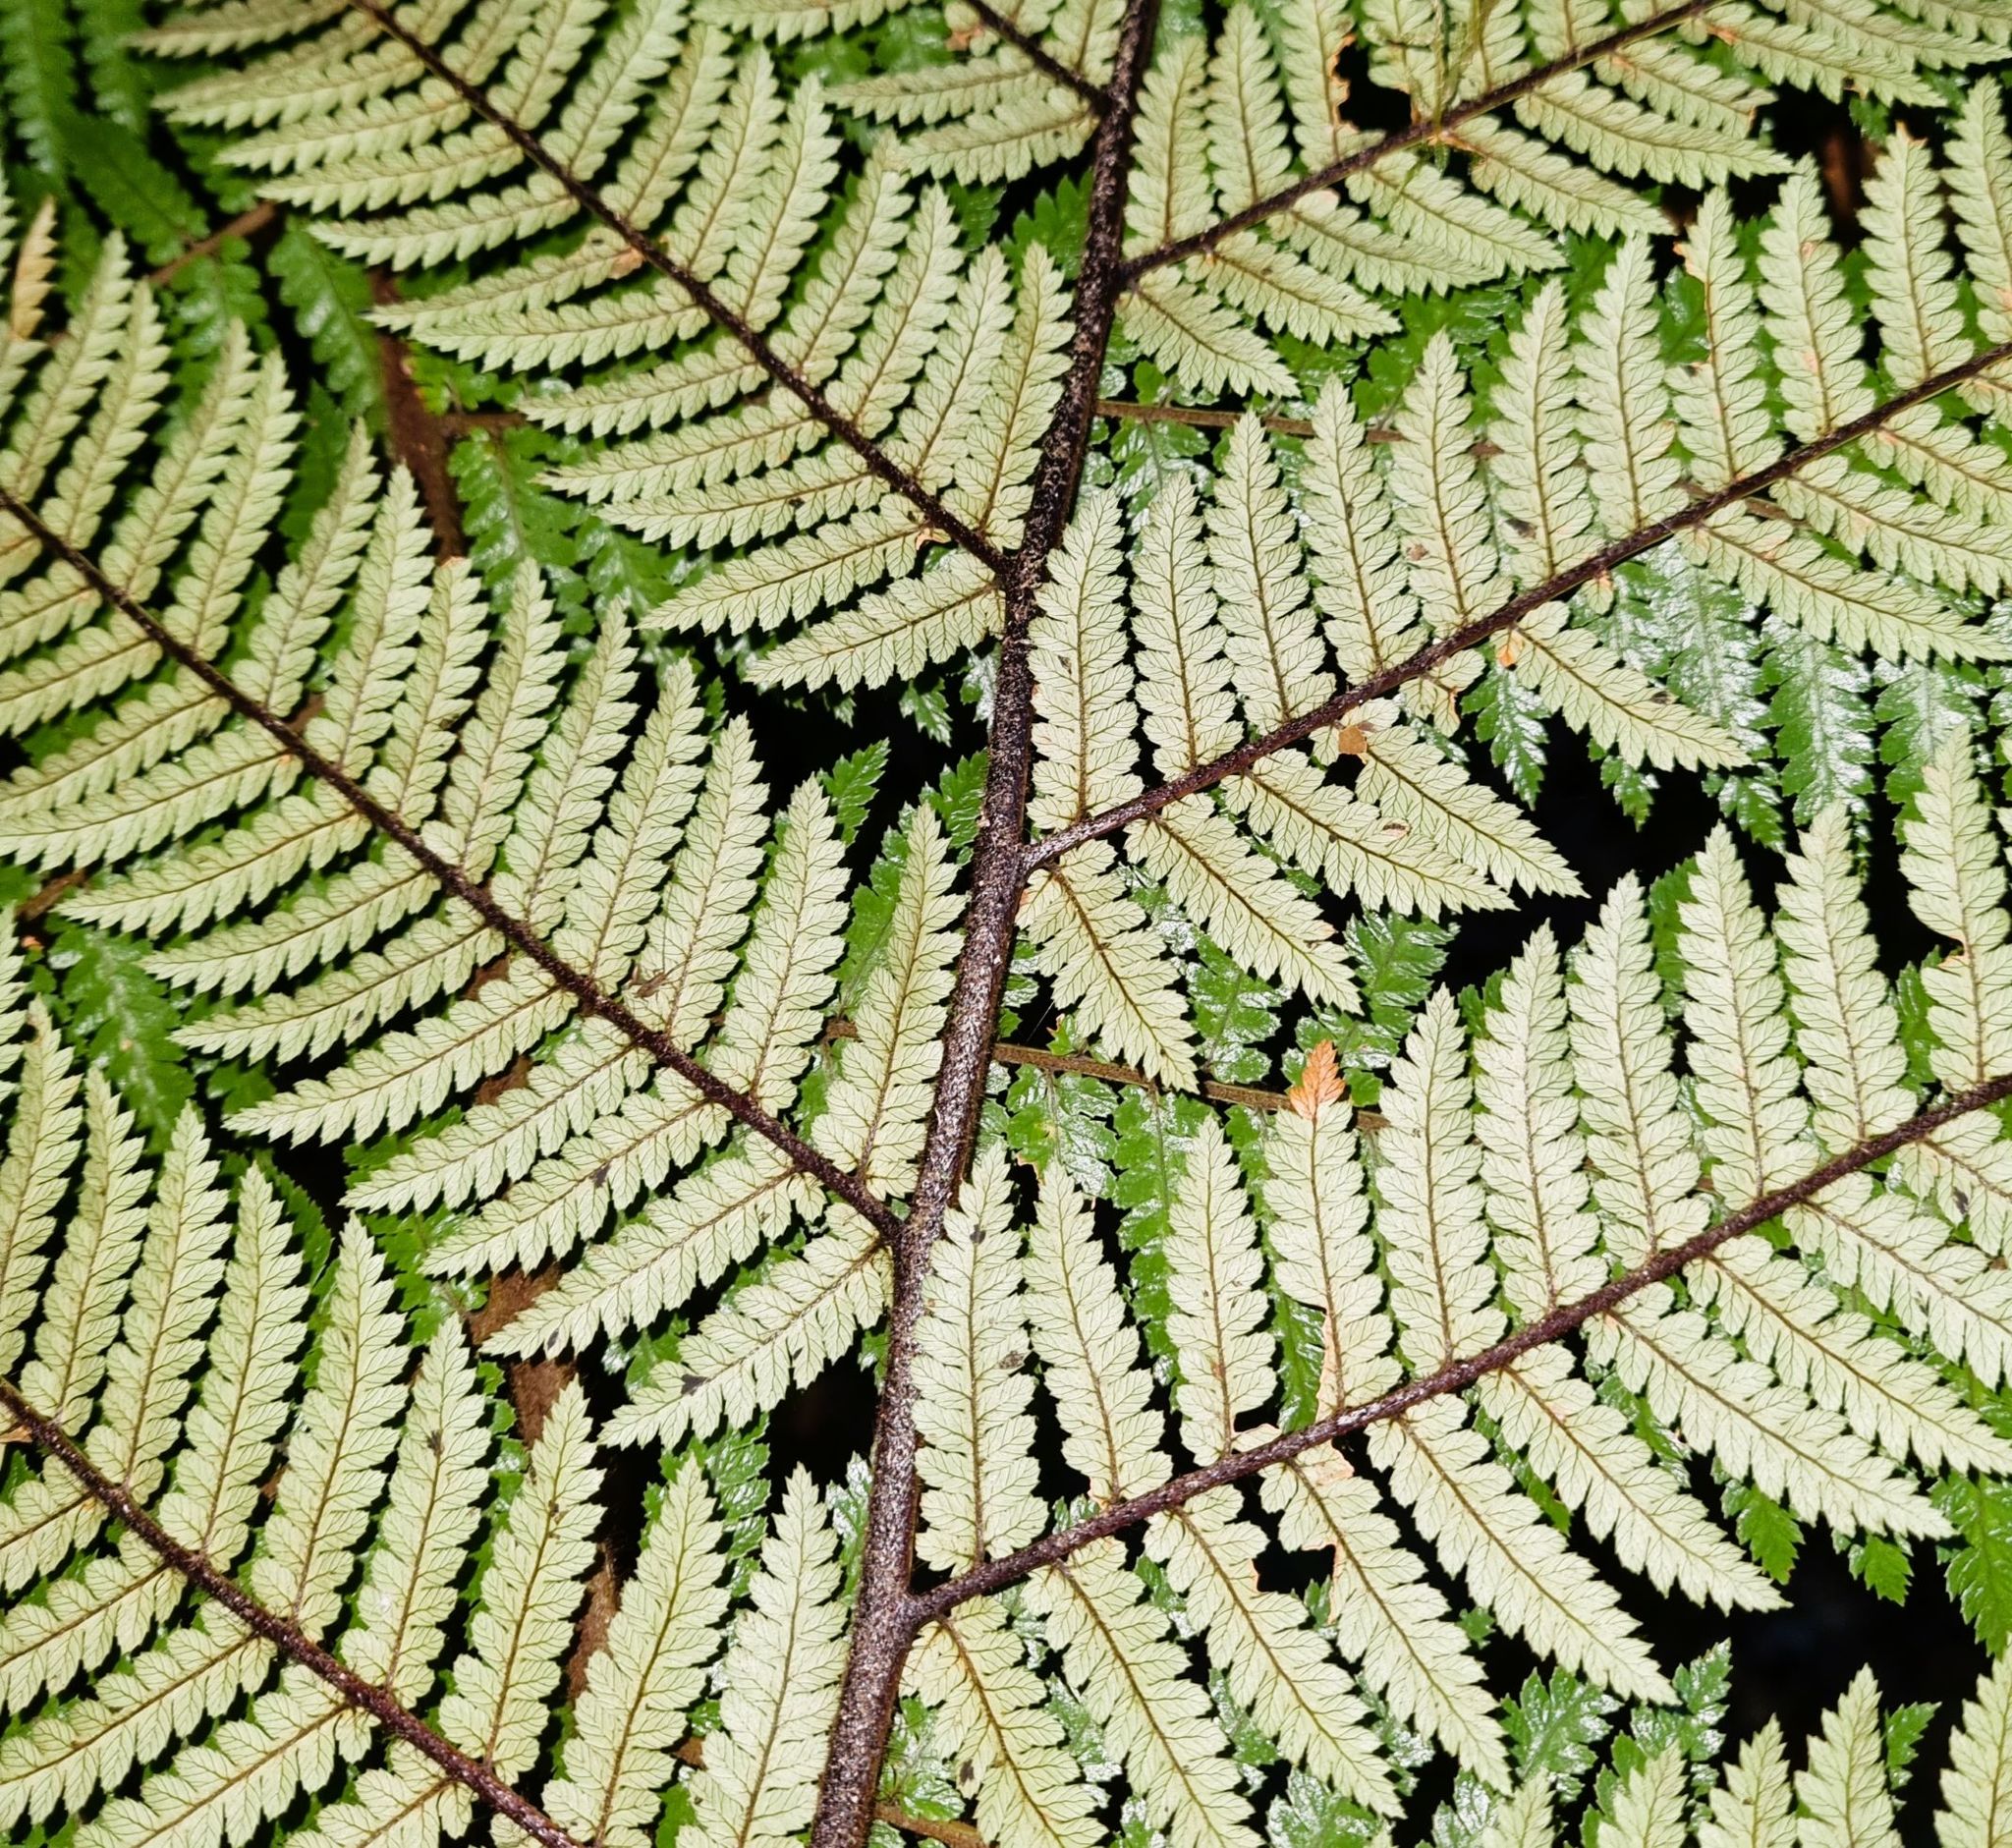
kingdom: Plantae
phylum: Tracheophyta
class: Polypodiopsida
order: Cyatheales
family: Dicksoniaceae
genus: Dicksonia
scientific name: Dicksonia squarrosa
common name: Hard treefern
